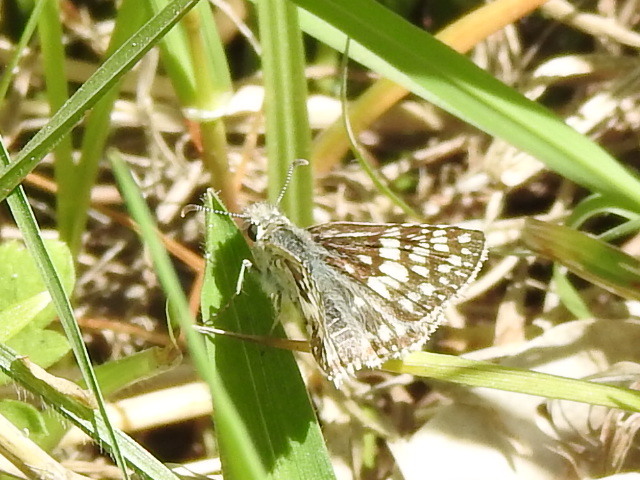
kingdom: Animalia
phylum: Arthropoda
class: Insecta
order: Lepidoptera
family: Hesperiidae
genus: Burnsius
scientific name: Burnsius
